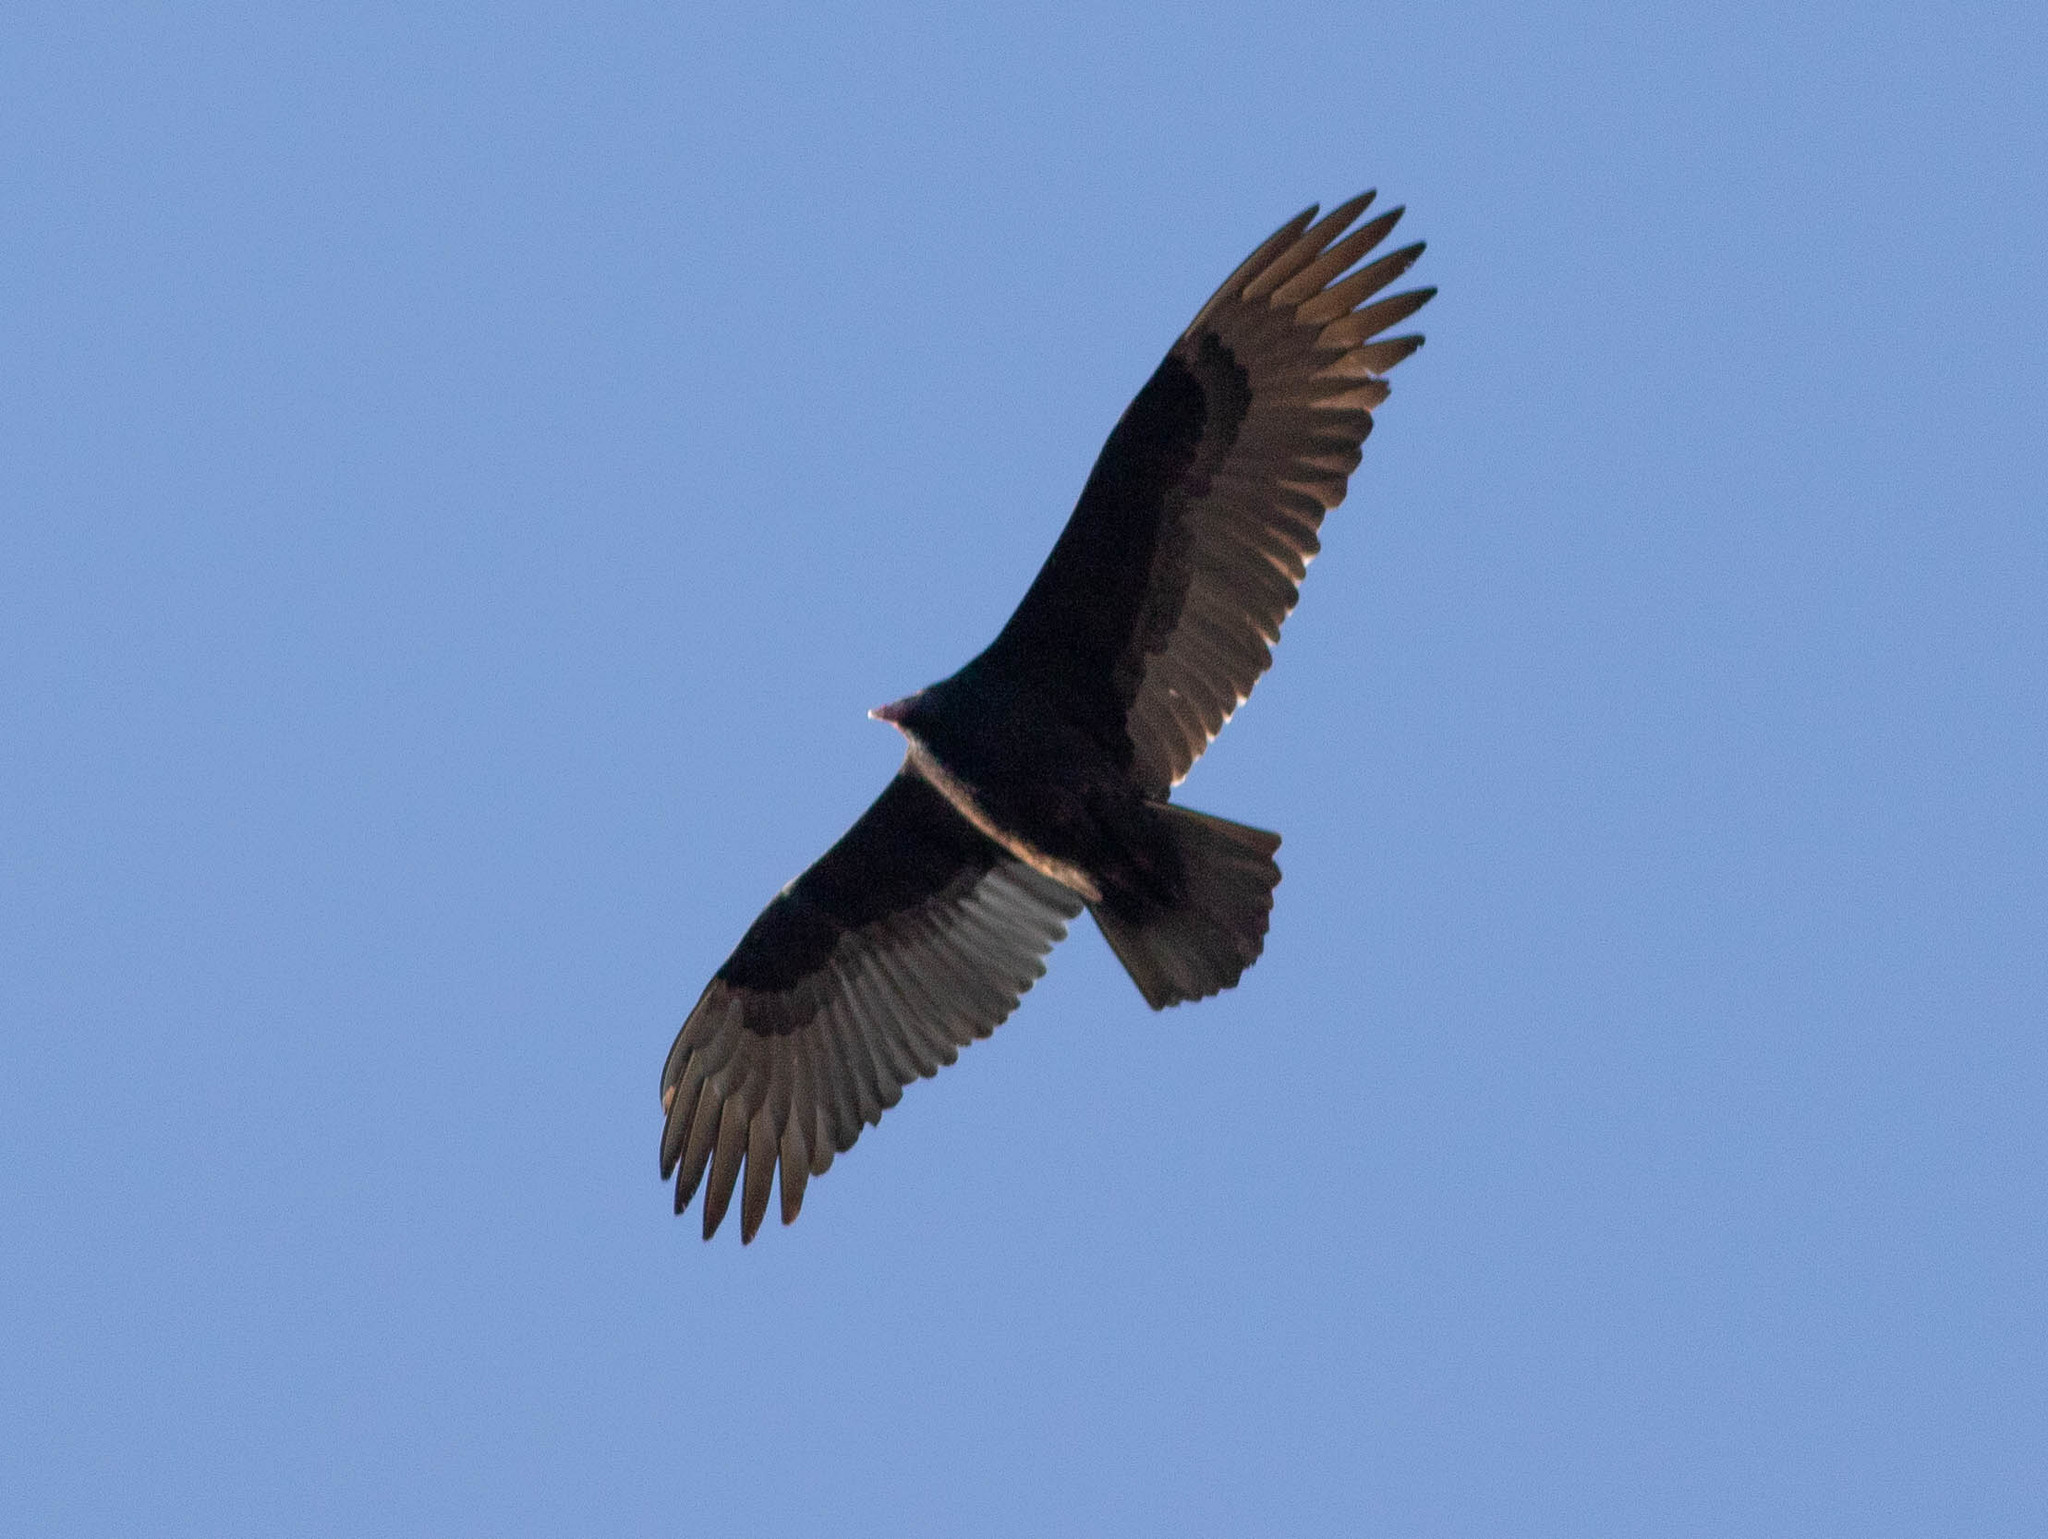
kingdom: Animalia
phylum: Chordata
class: Aves
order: Accipitriformes
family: Cathartidae
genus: Cathartes
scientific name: Cathartes aura
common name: Turkey vulture
